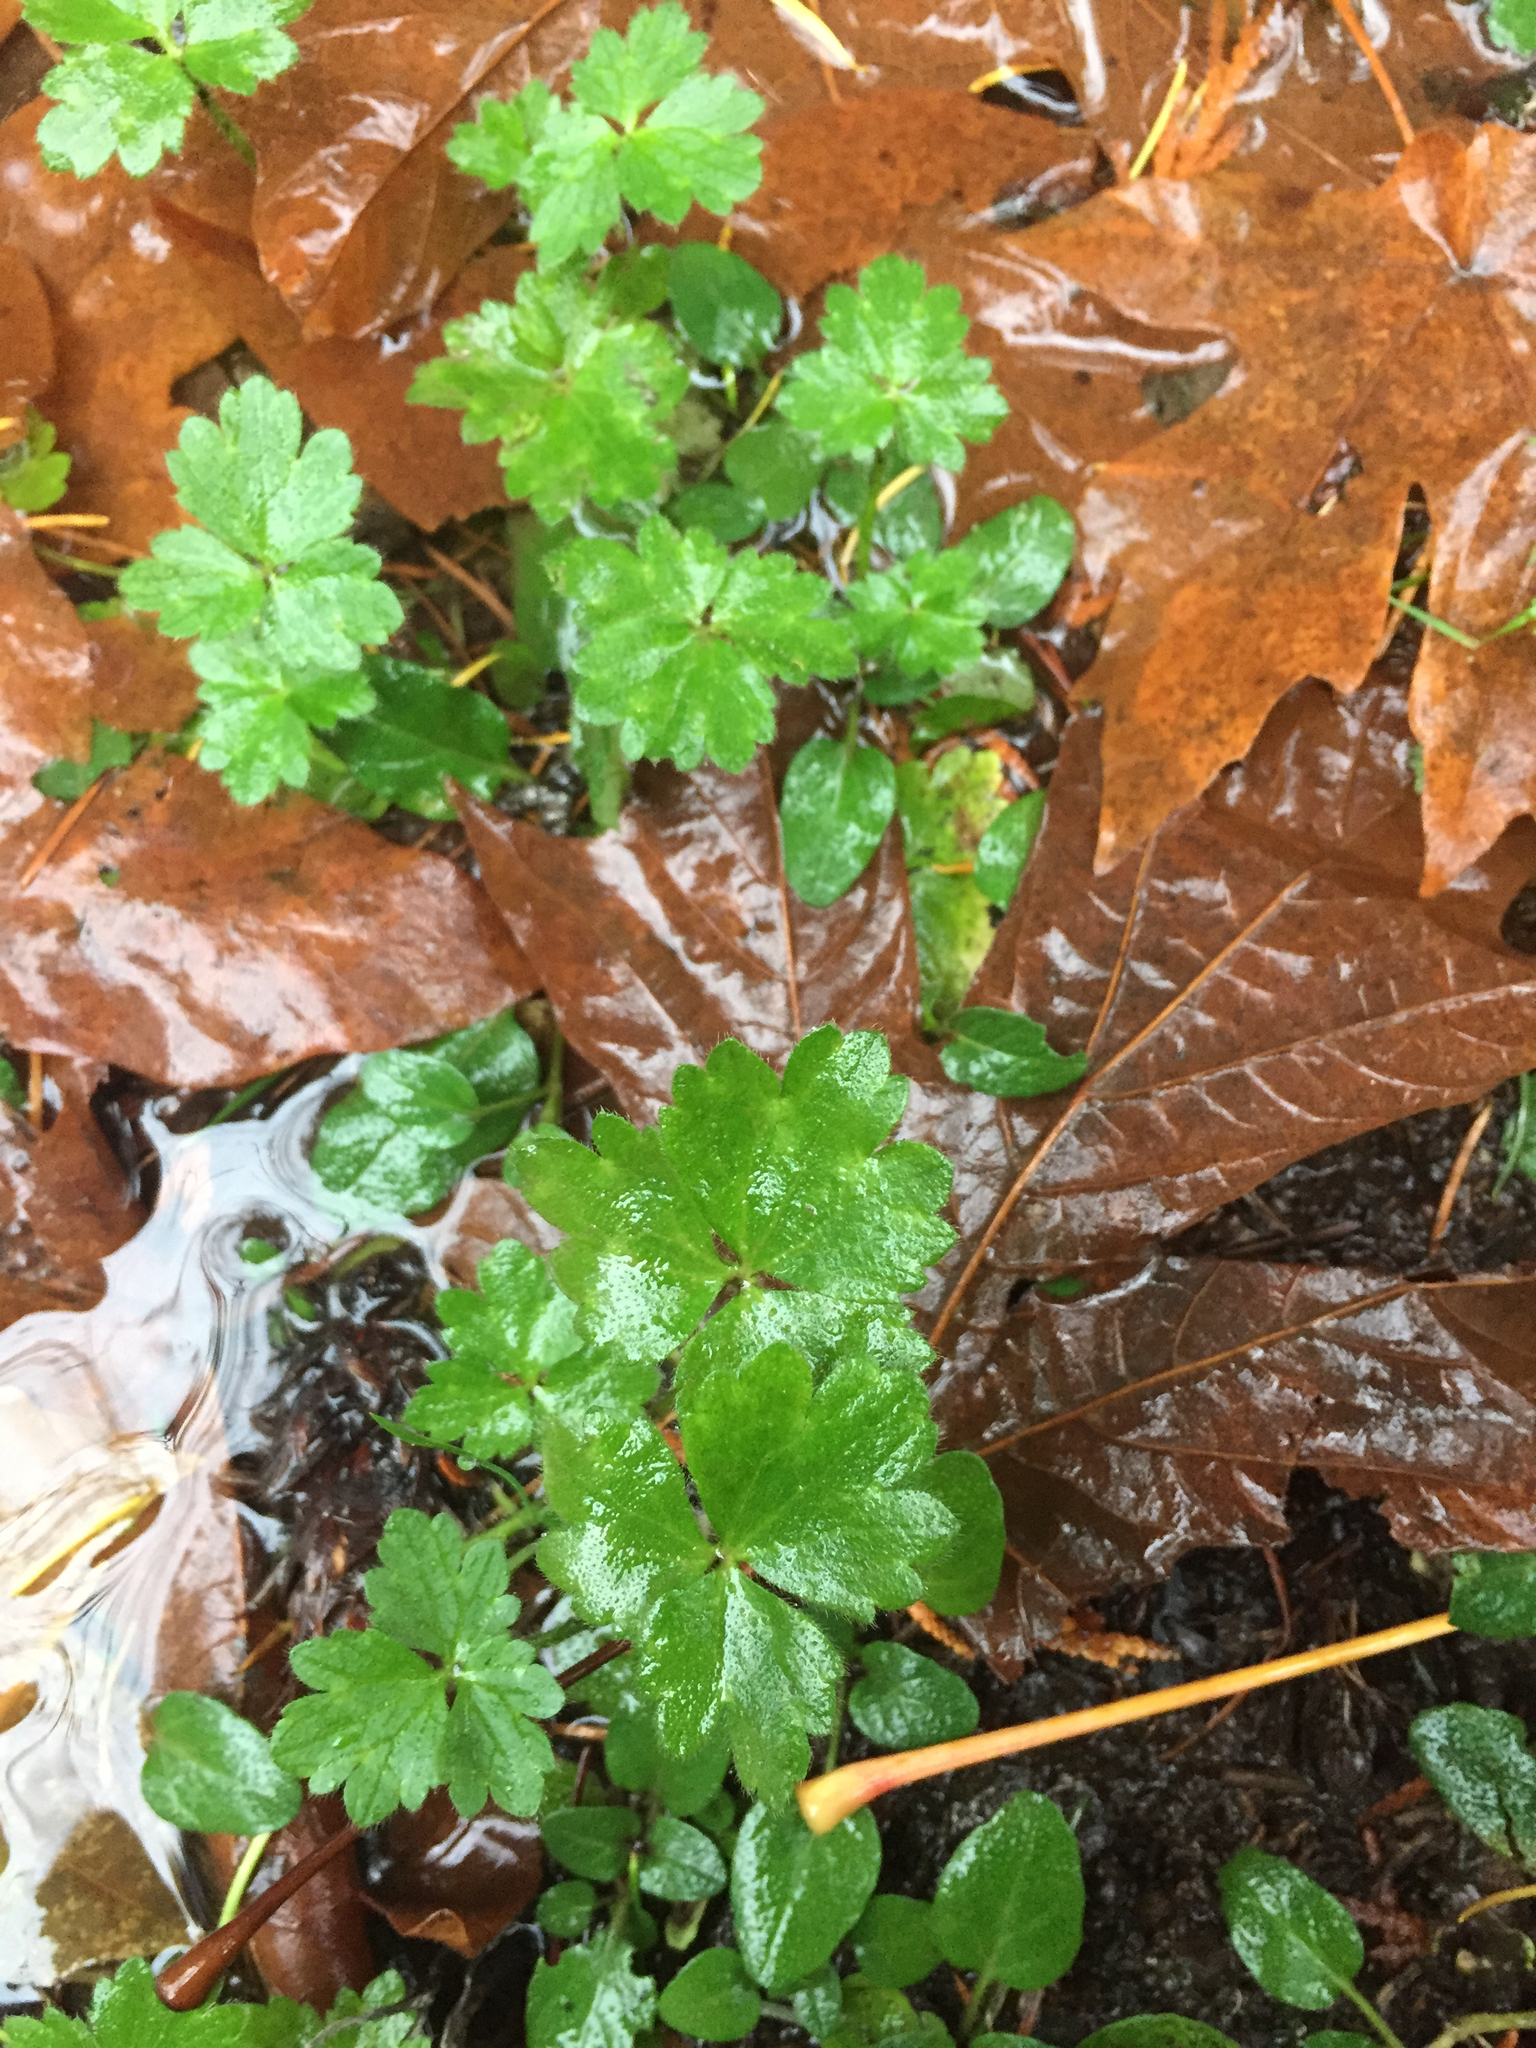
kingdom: Plantae
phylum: Tracheophyta
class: Magnoliopsida
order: Ranunculales
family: Ranunculaceae
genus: Ranunculus
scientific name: Ranunculus repens
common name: Creeping buttercup
